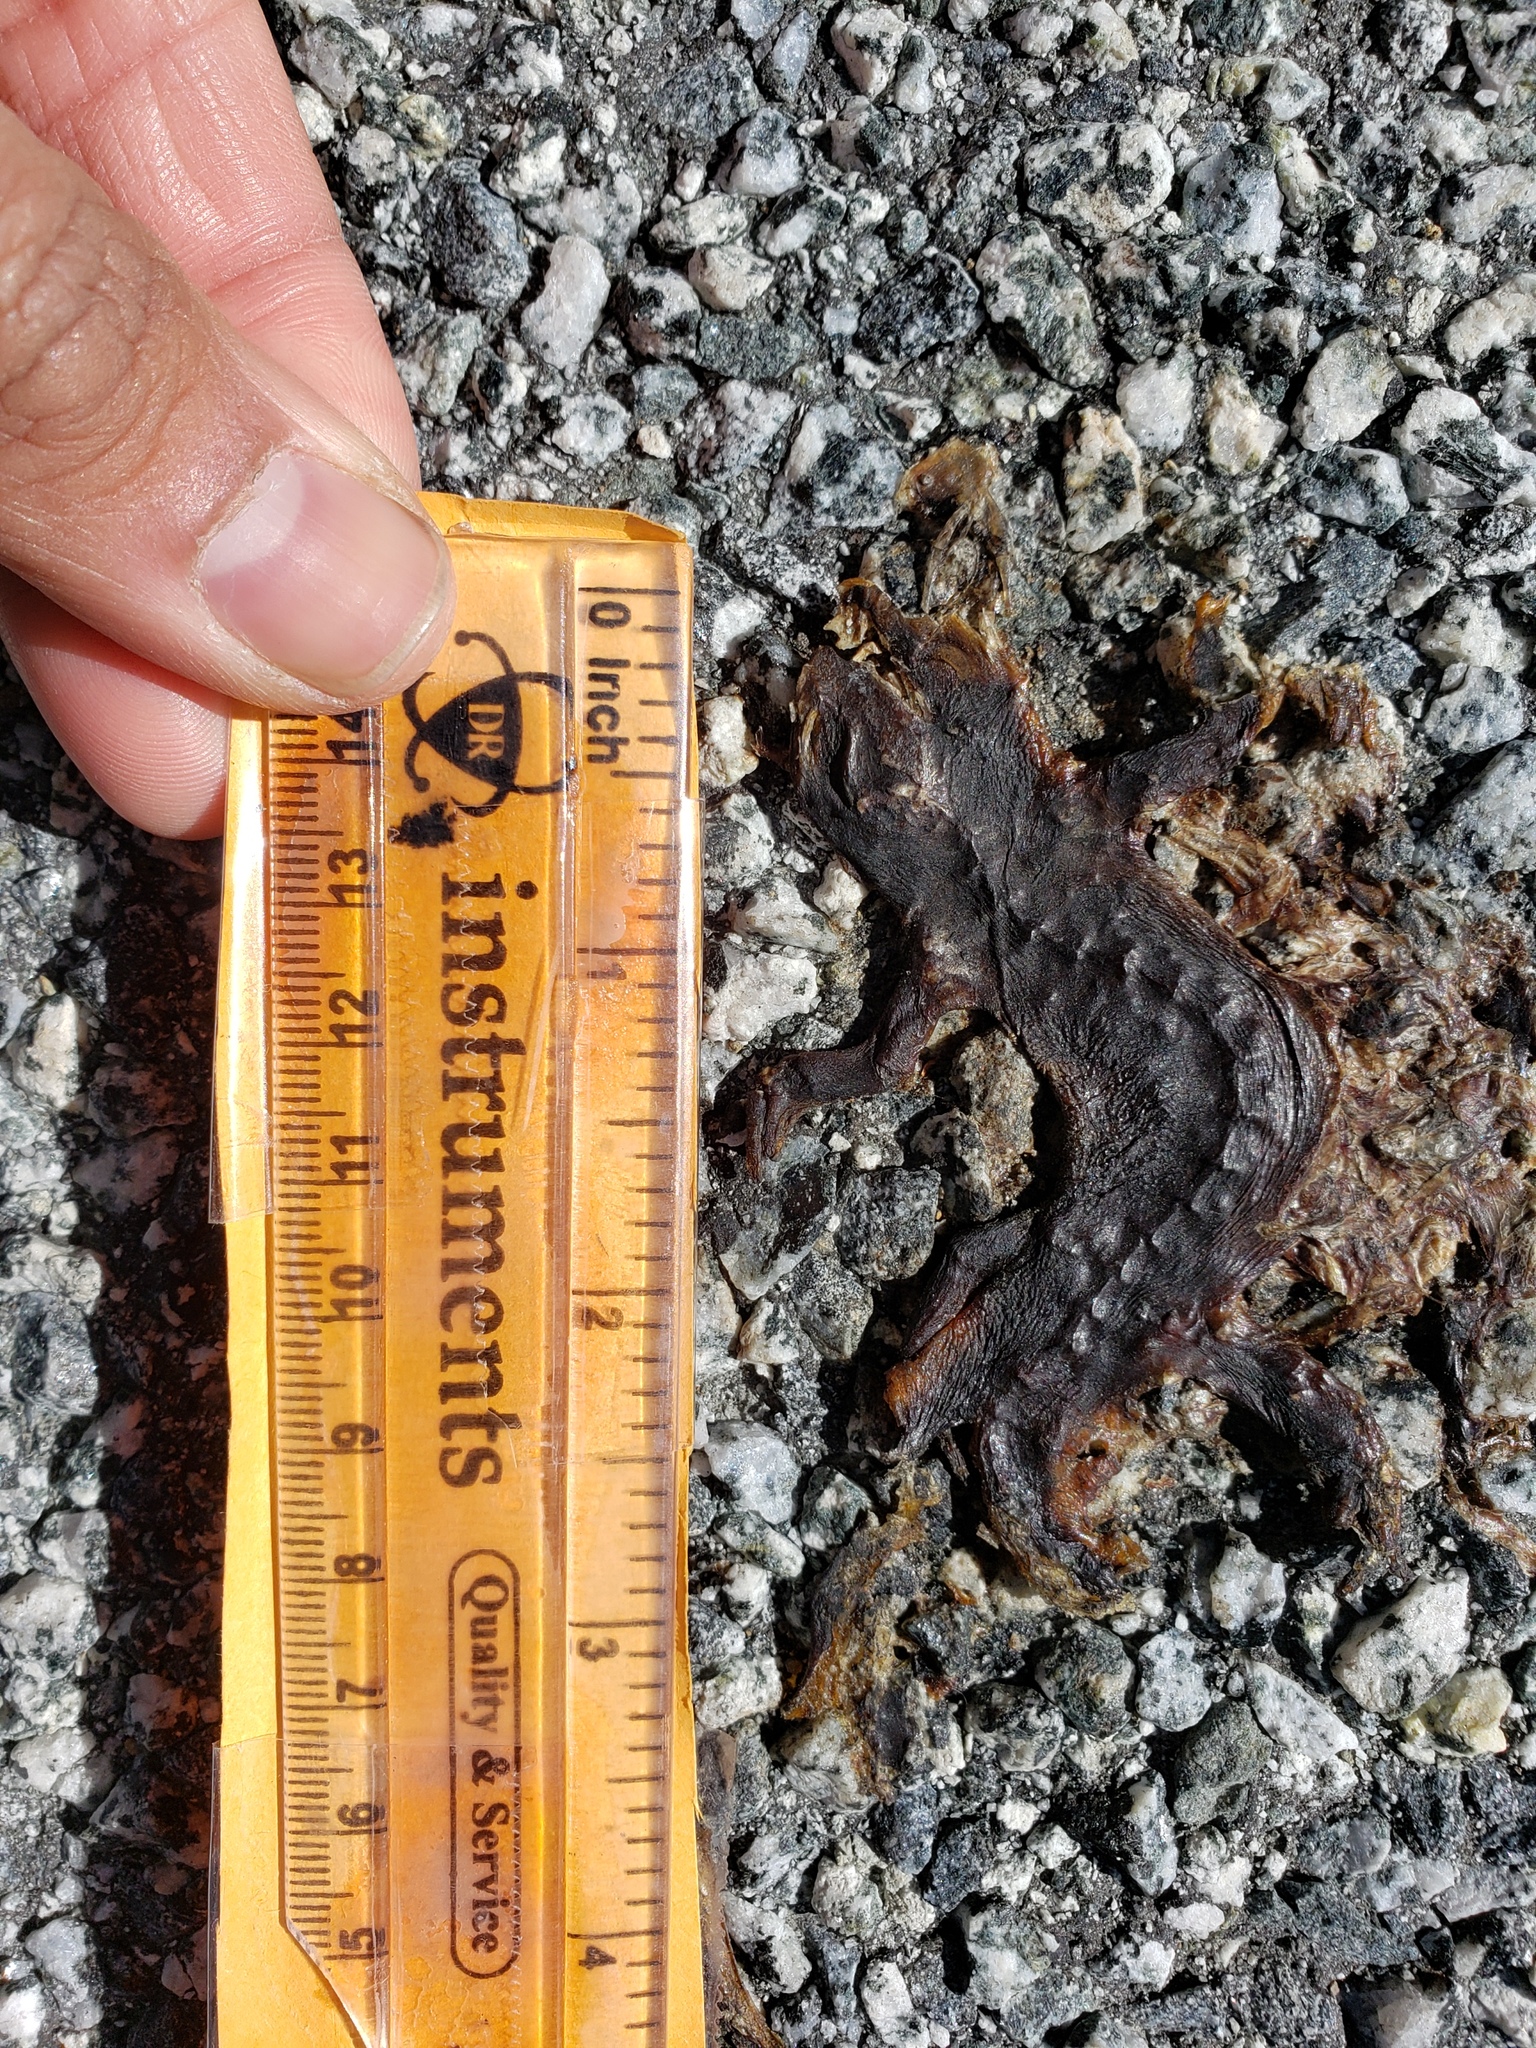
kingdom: Animalia
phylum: Chordata
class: Amphibia
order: Caudata
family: Salamandridae
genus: Taricha
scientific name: Taricha
